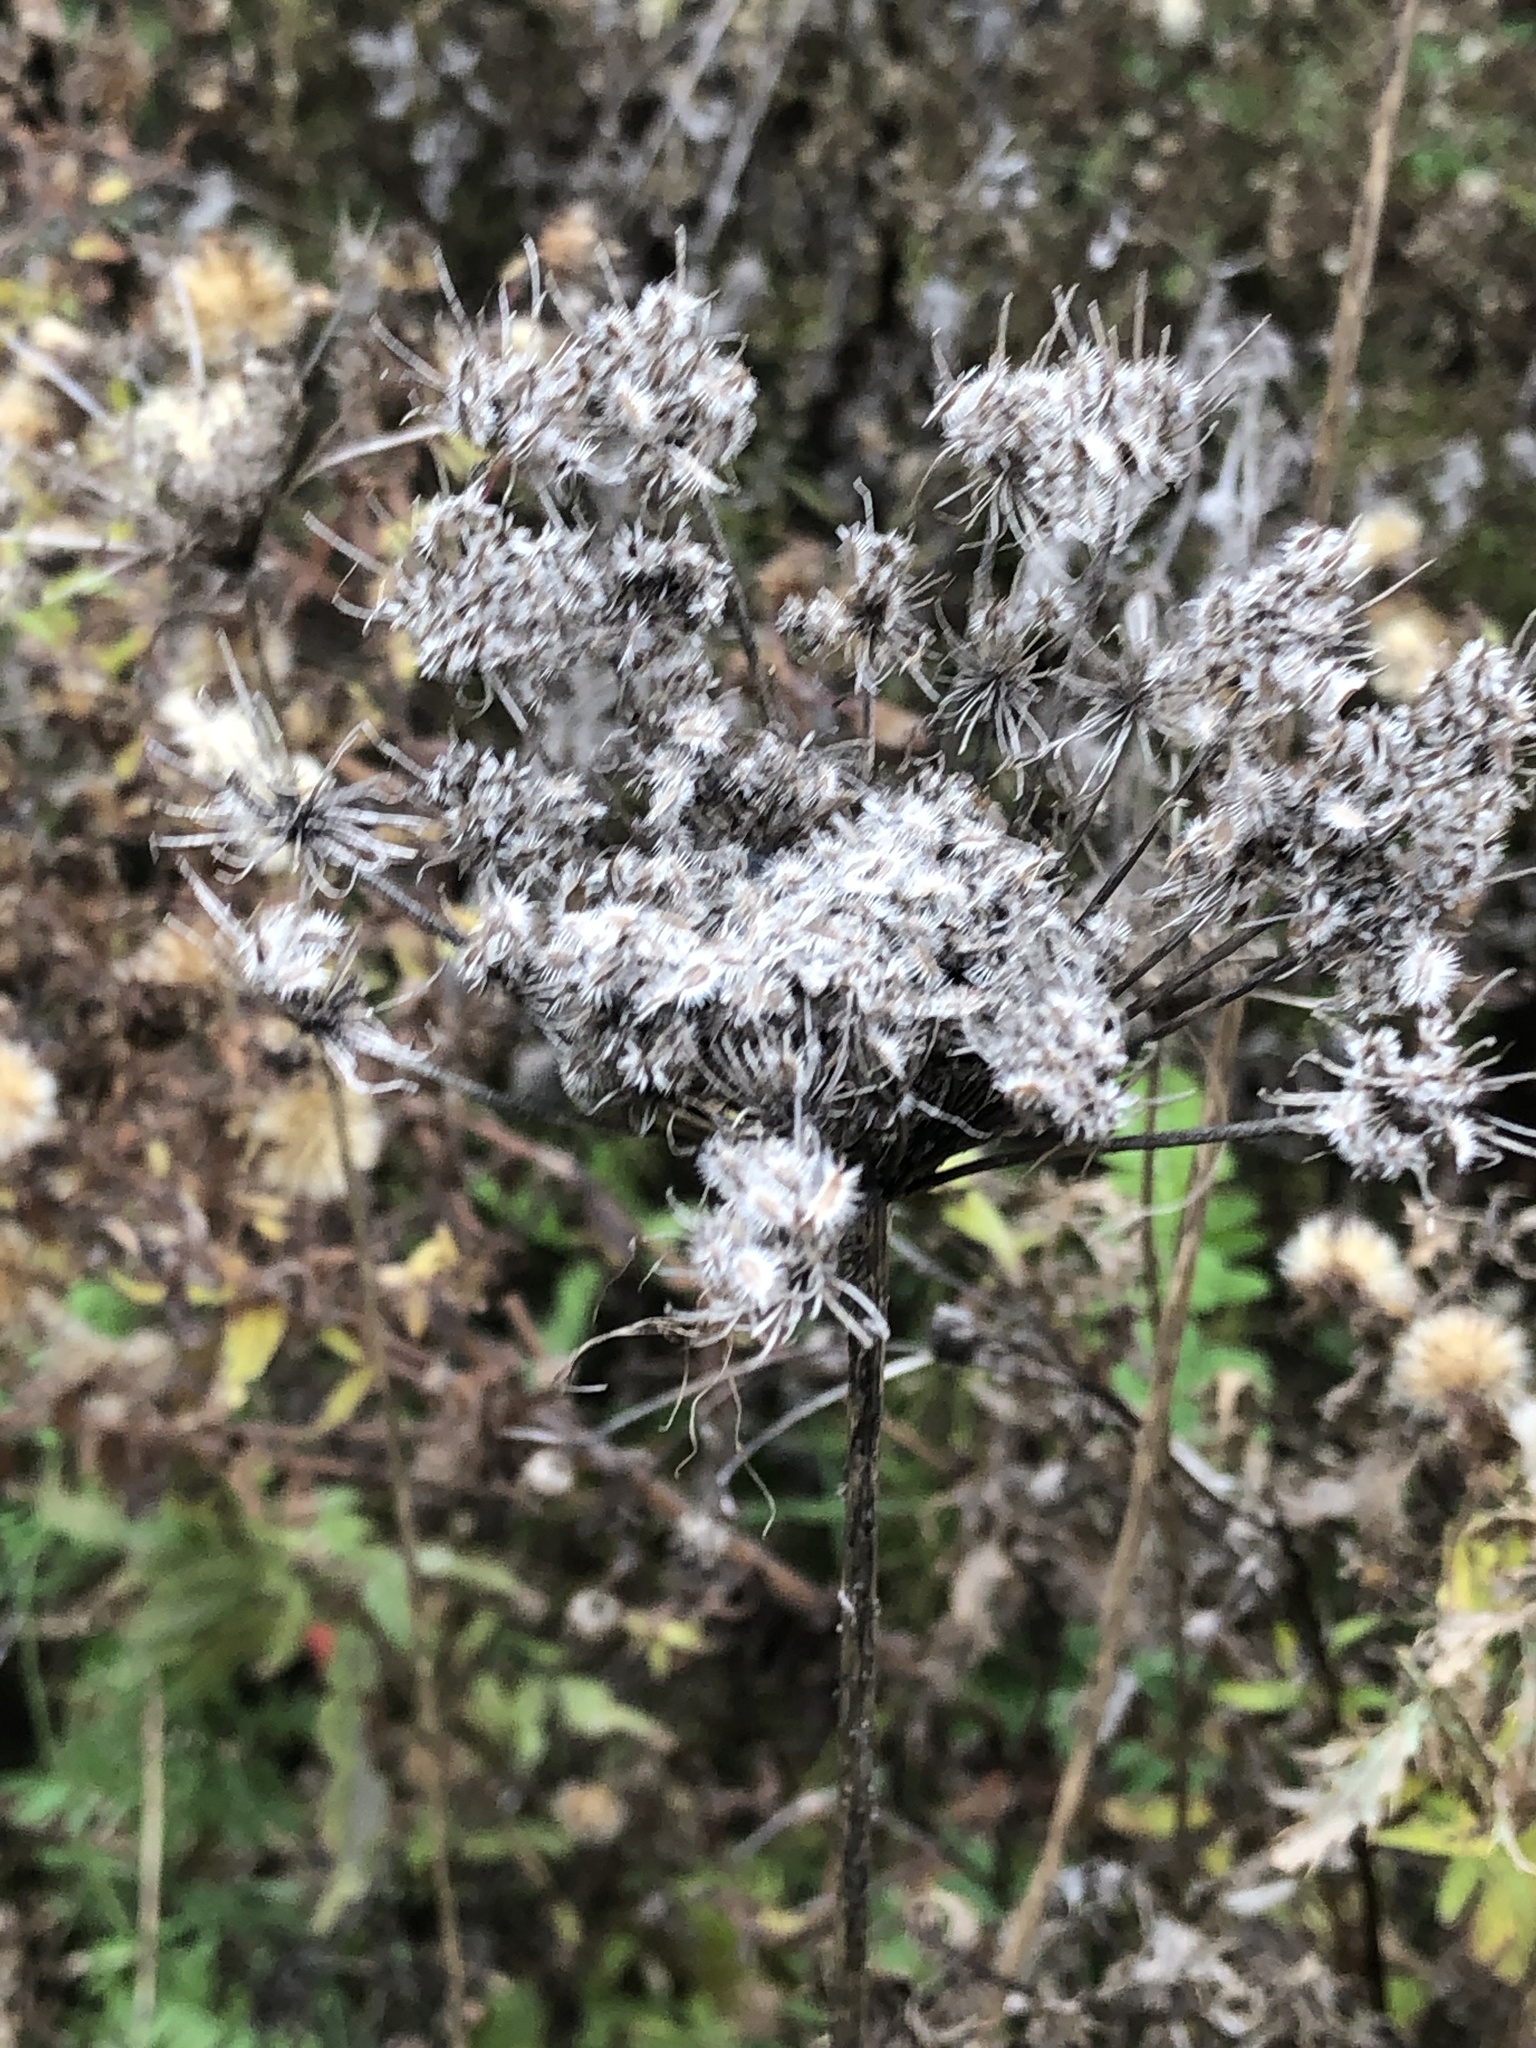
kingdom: Plantae
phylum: Tracheophyta
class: Magnoliopsida
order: Apiales
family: Apiaceae
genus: Daucus
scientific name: Daucus carota
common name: Wild carrot
